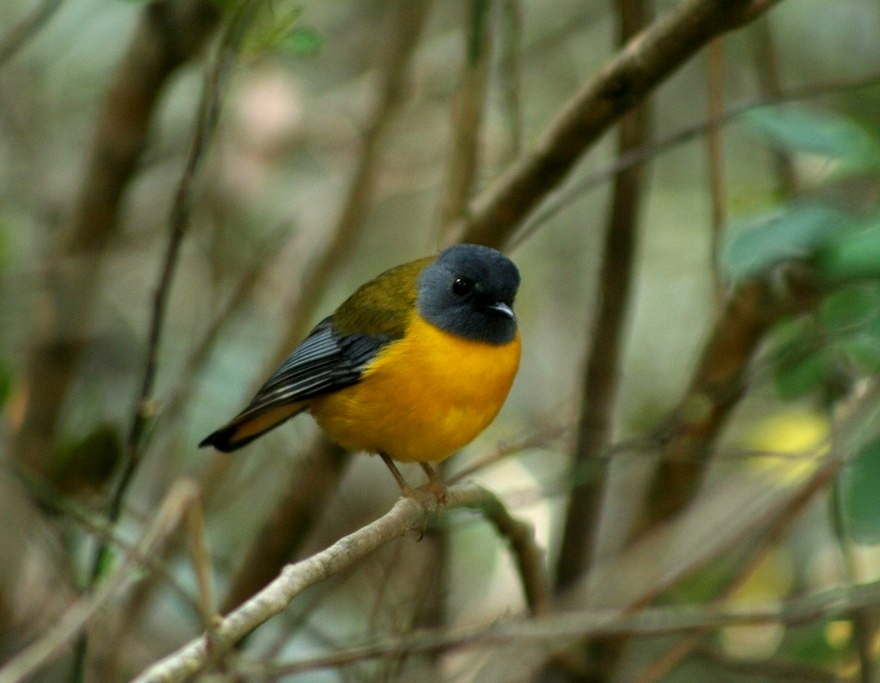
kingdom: Animalia
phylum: Chordata
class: Aves
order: Passeriformes
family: Muscicapidae
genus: Pogonocichla
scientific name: Pogonocichla stellata
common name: White-starred robin
